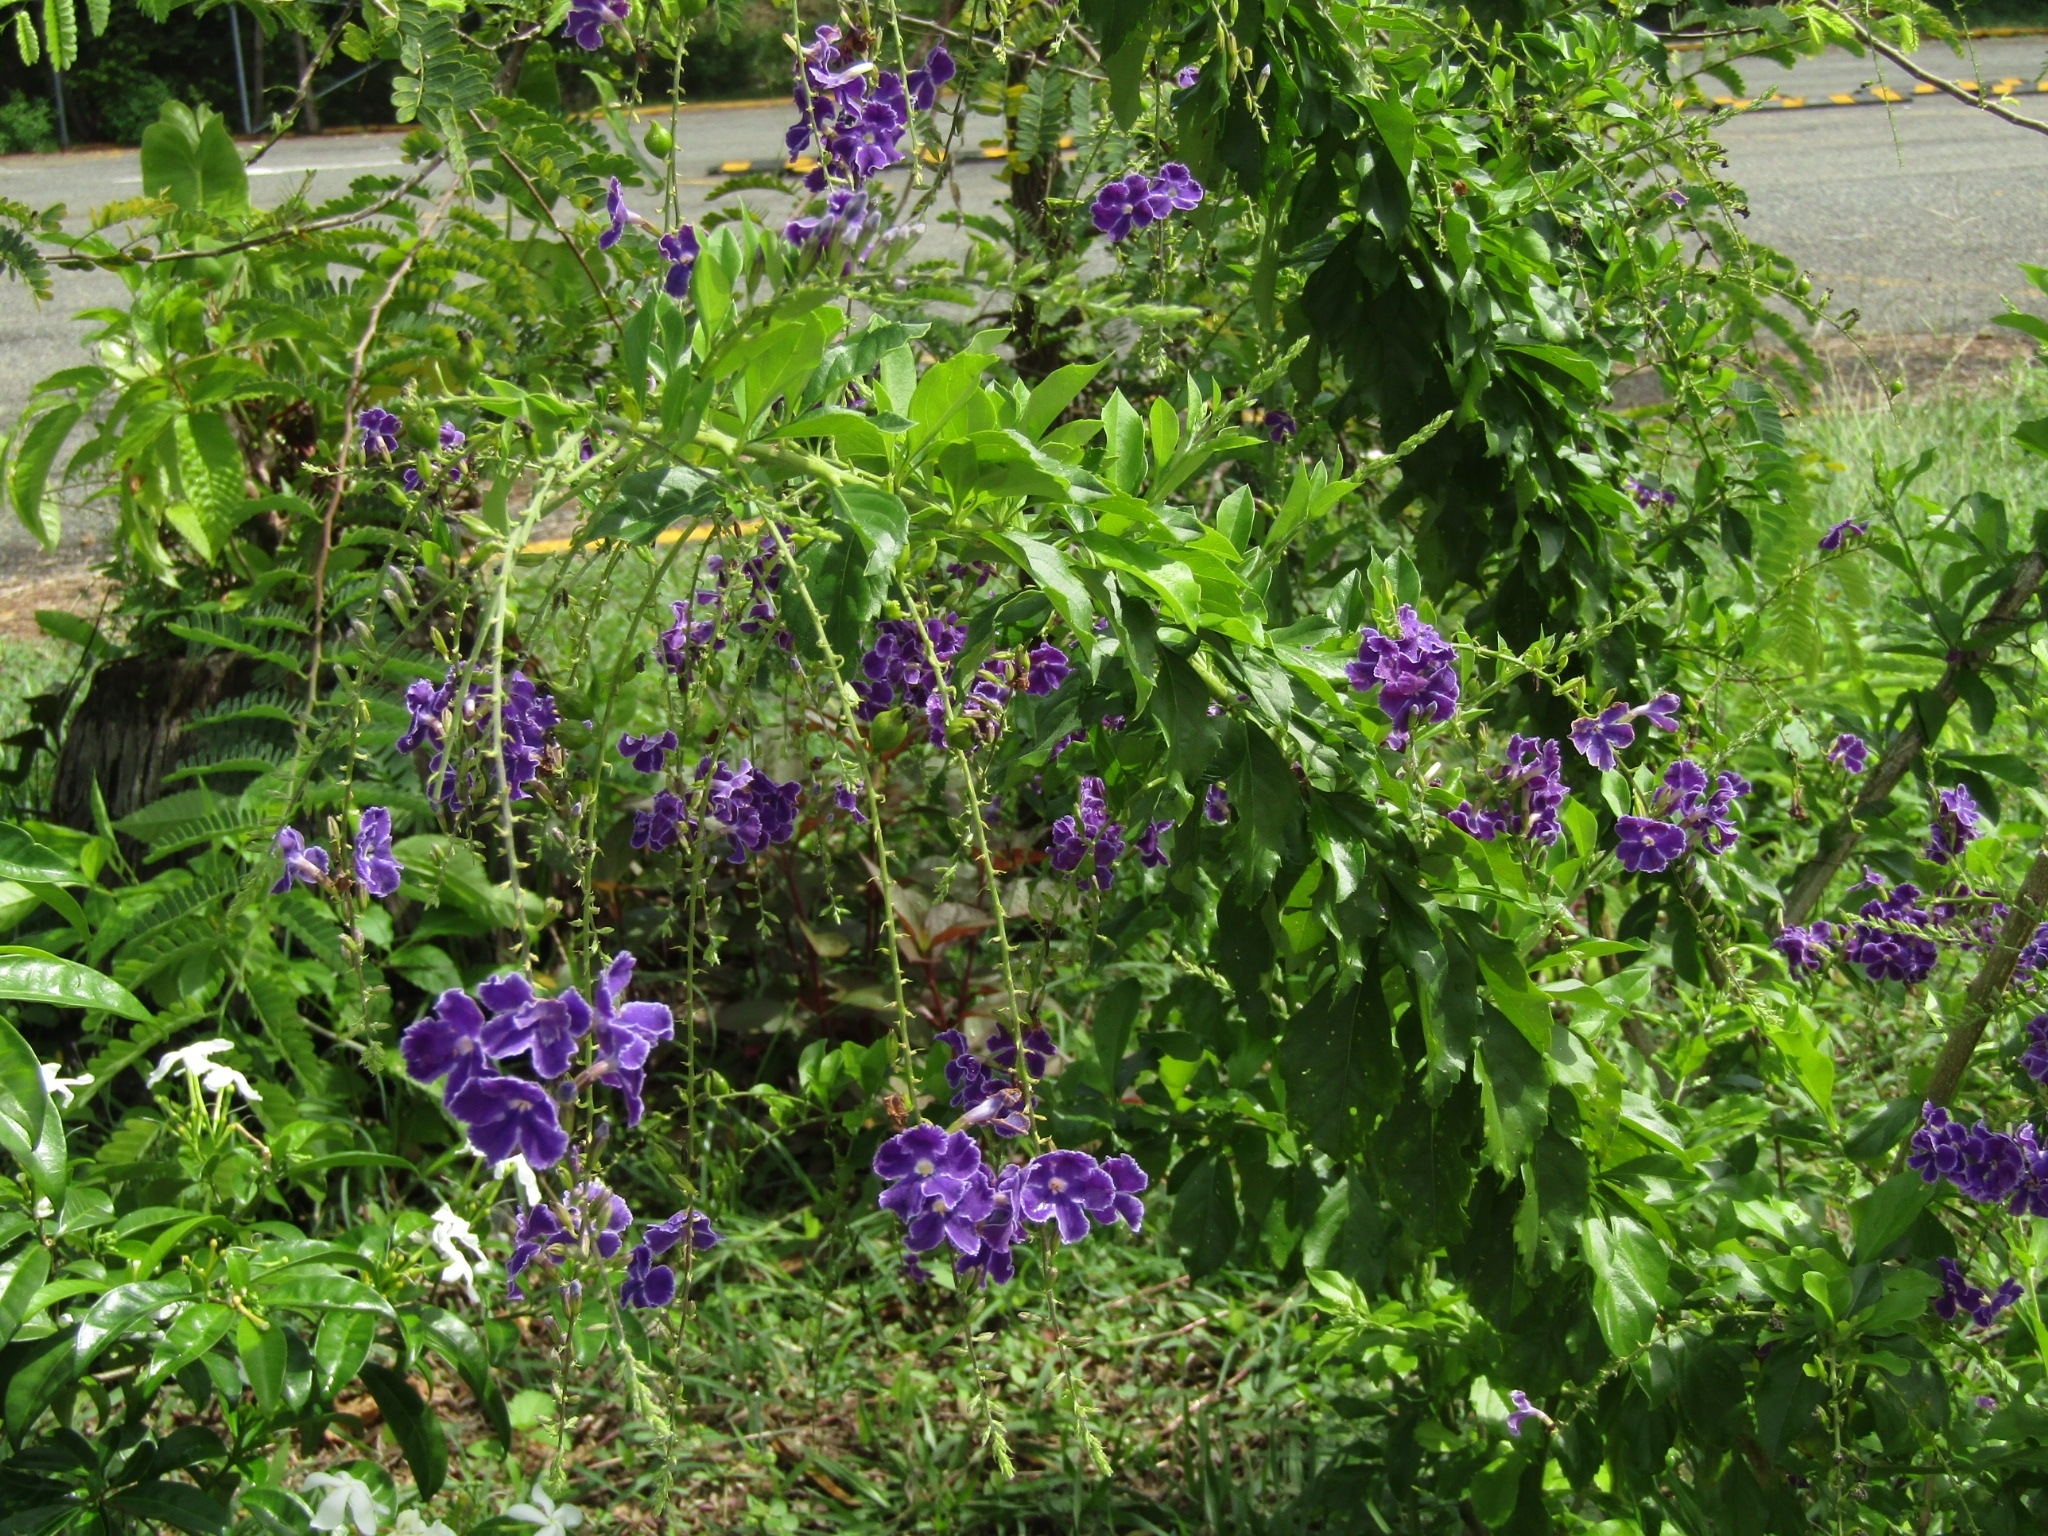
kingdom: Plantae
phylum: Tracheophyta
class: Magnoliopsida
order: Lamiales
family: Verbenaceae
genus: Duranta
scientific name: Duranta erecta
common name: Golden dewdrops
